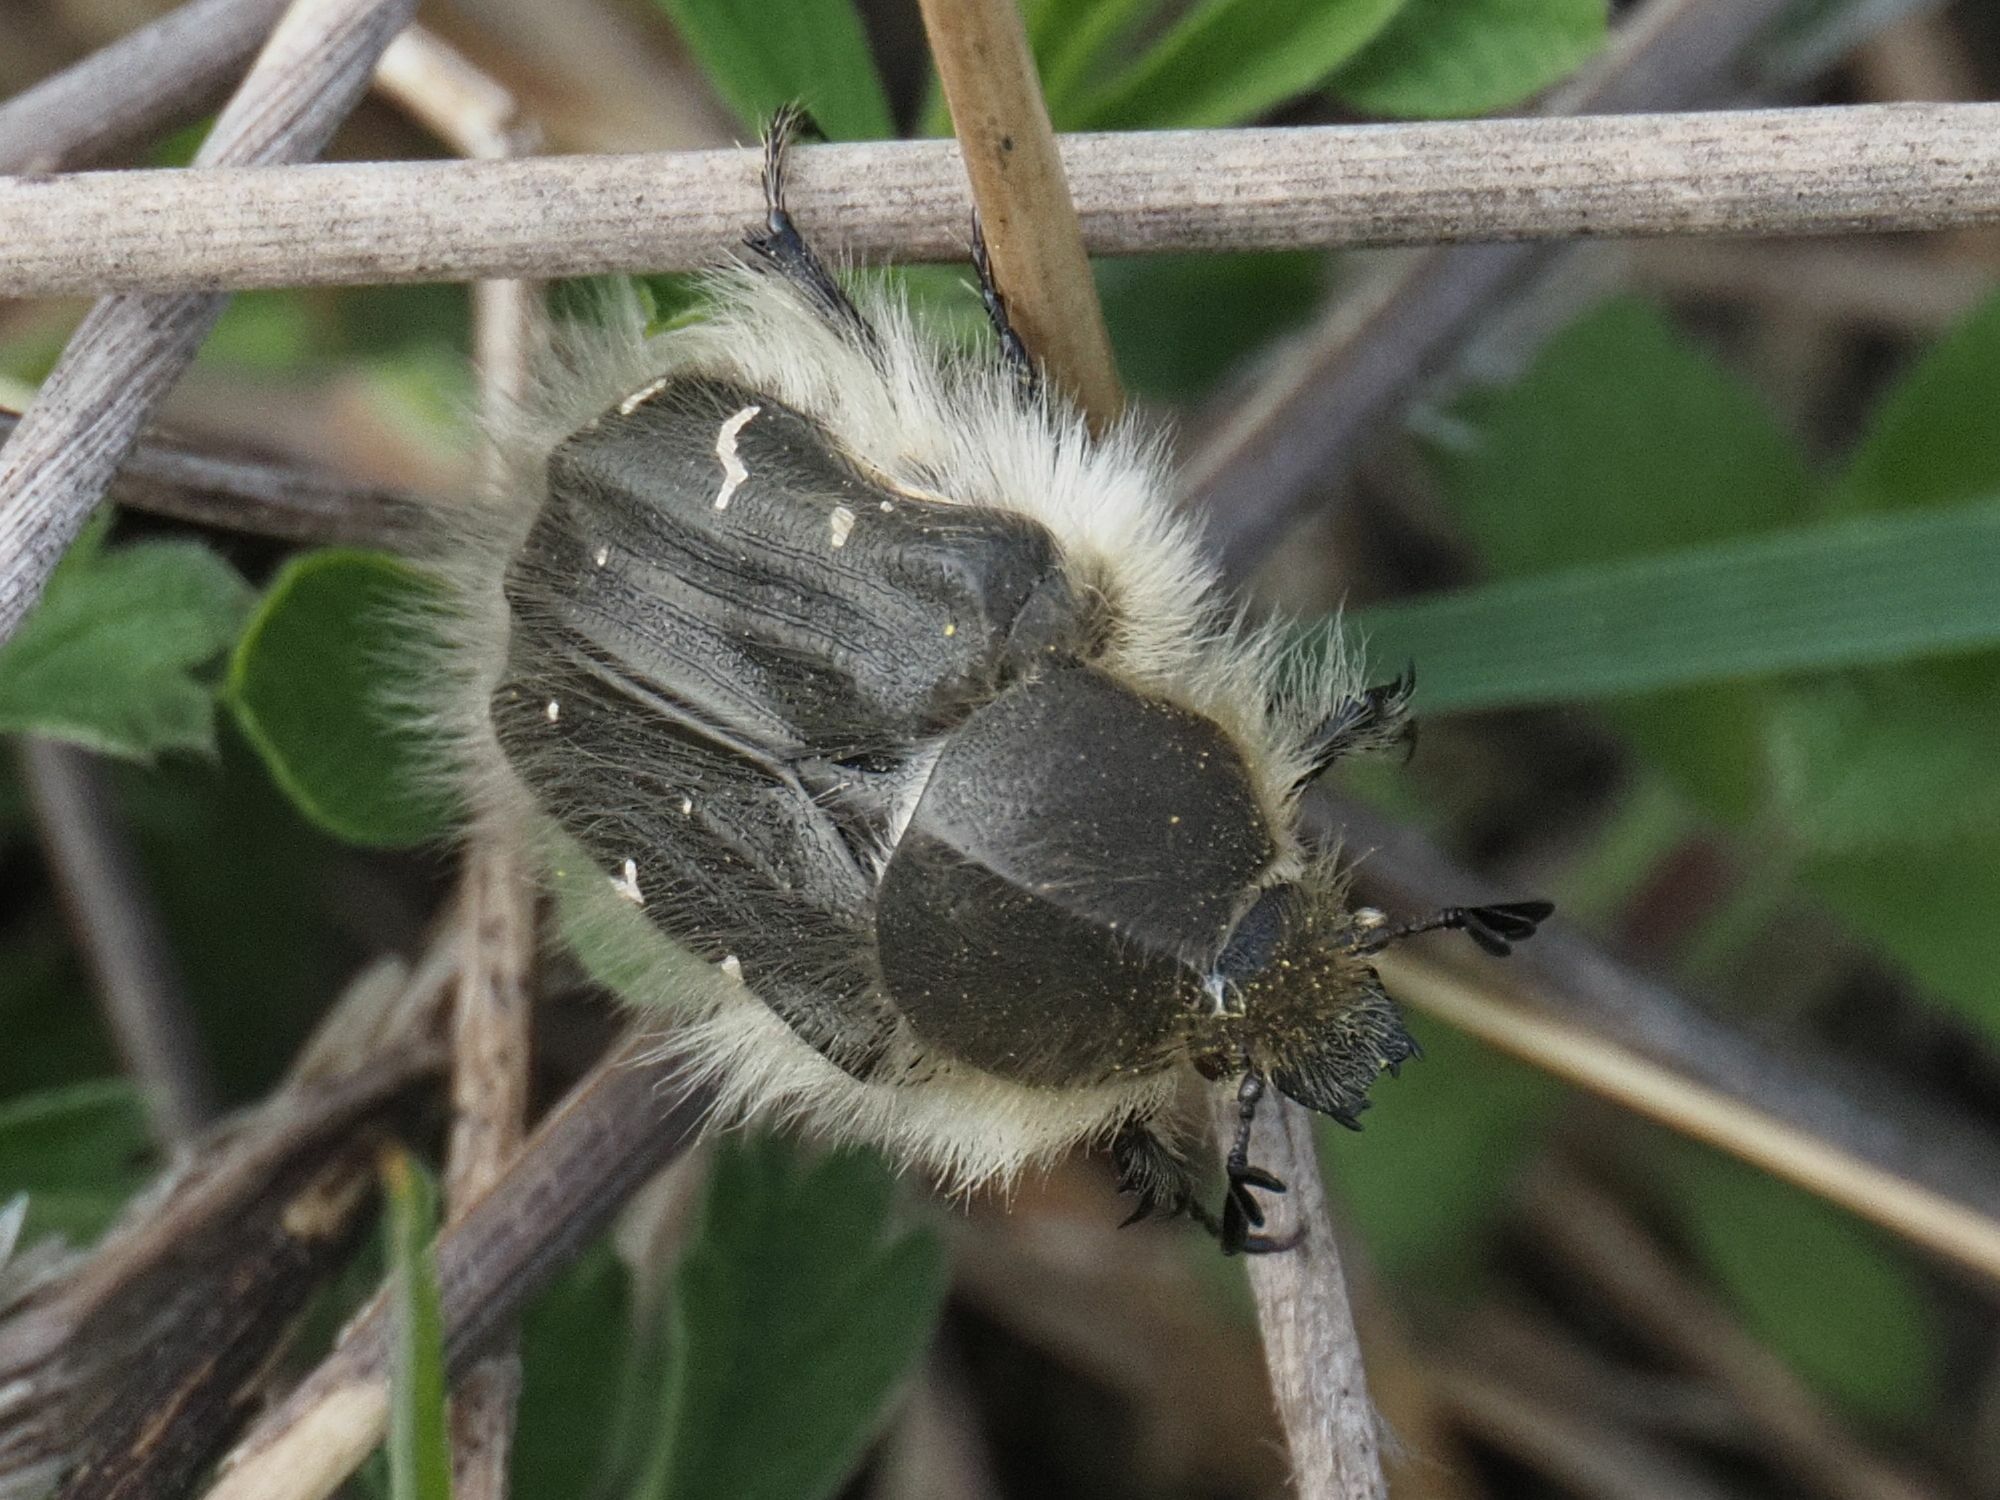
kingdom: Animalia
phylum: Arthropoda
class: Insecta
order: Coleoptera
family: Scarabaeidae
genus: Tropinota
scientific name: Tropinota hirta
